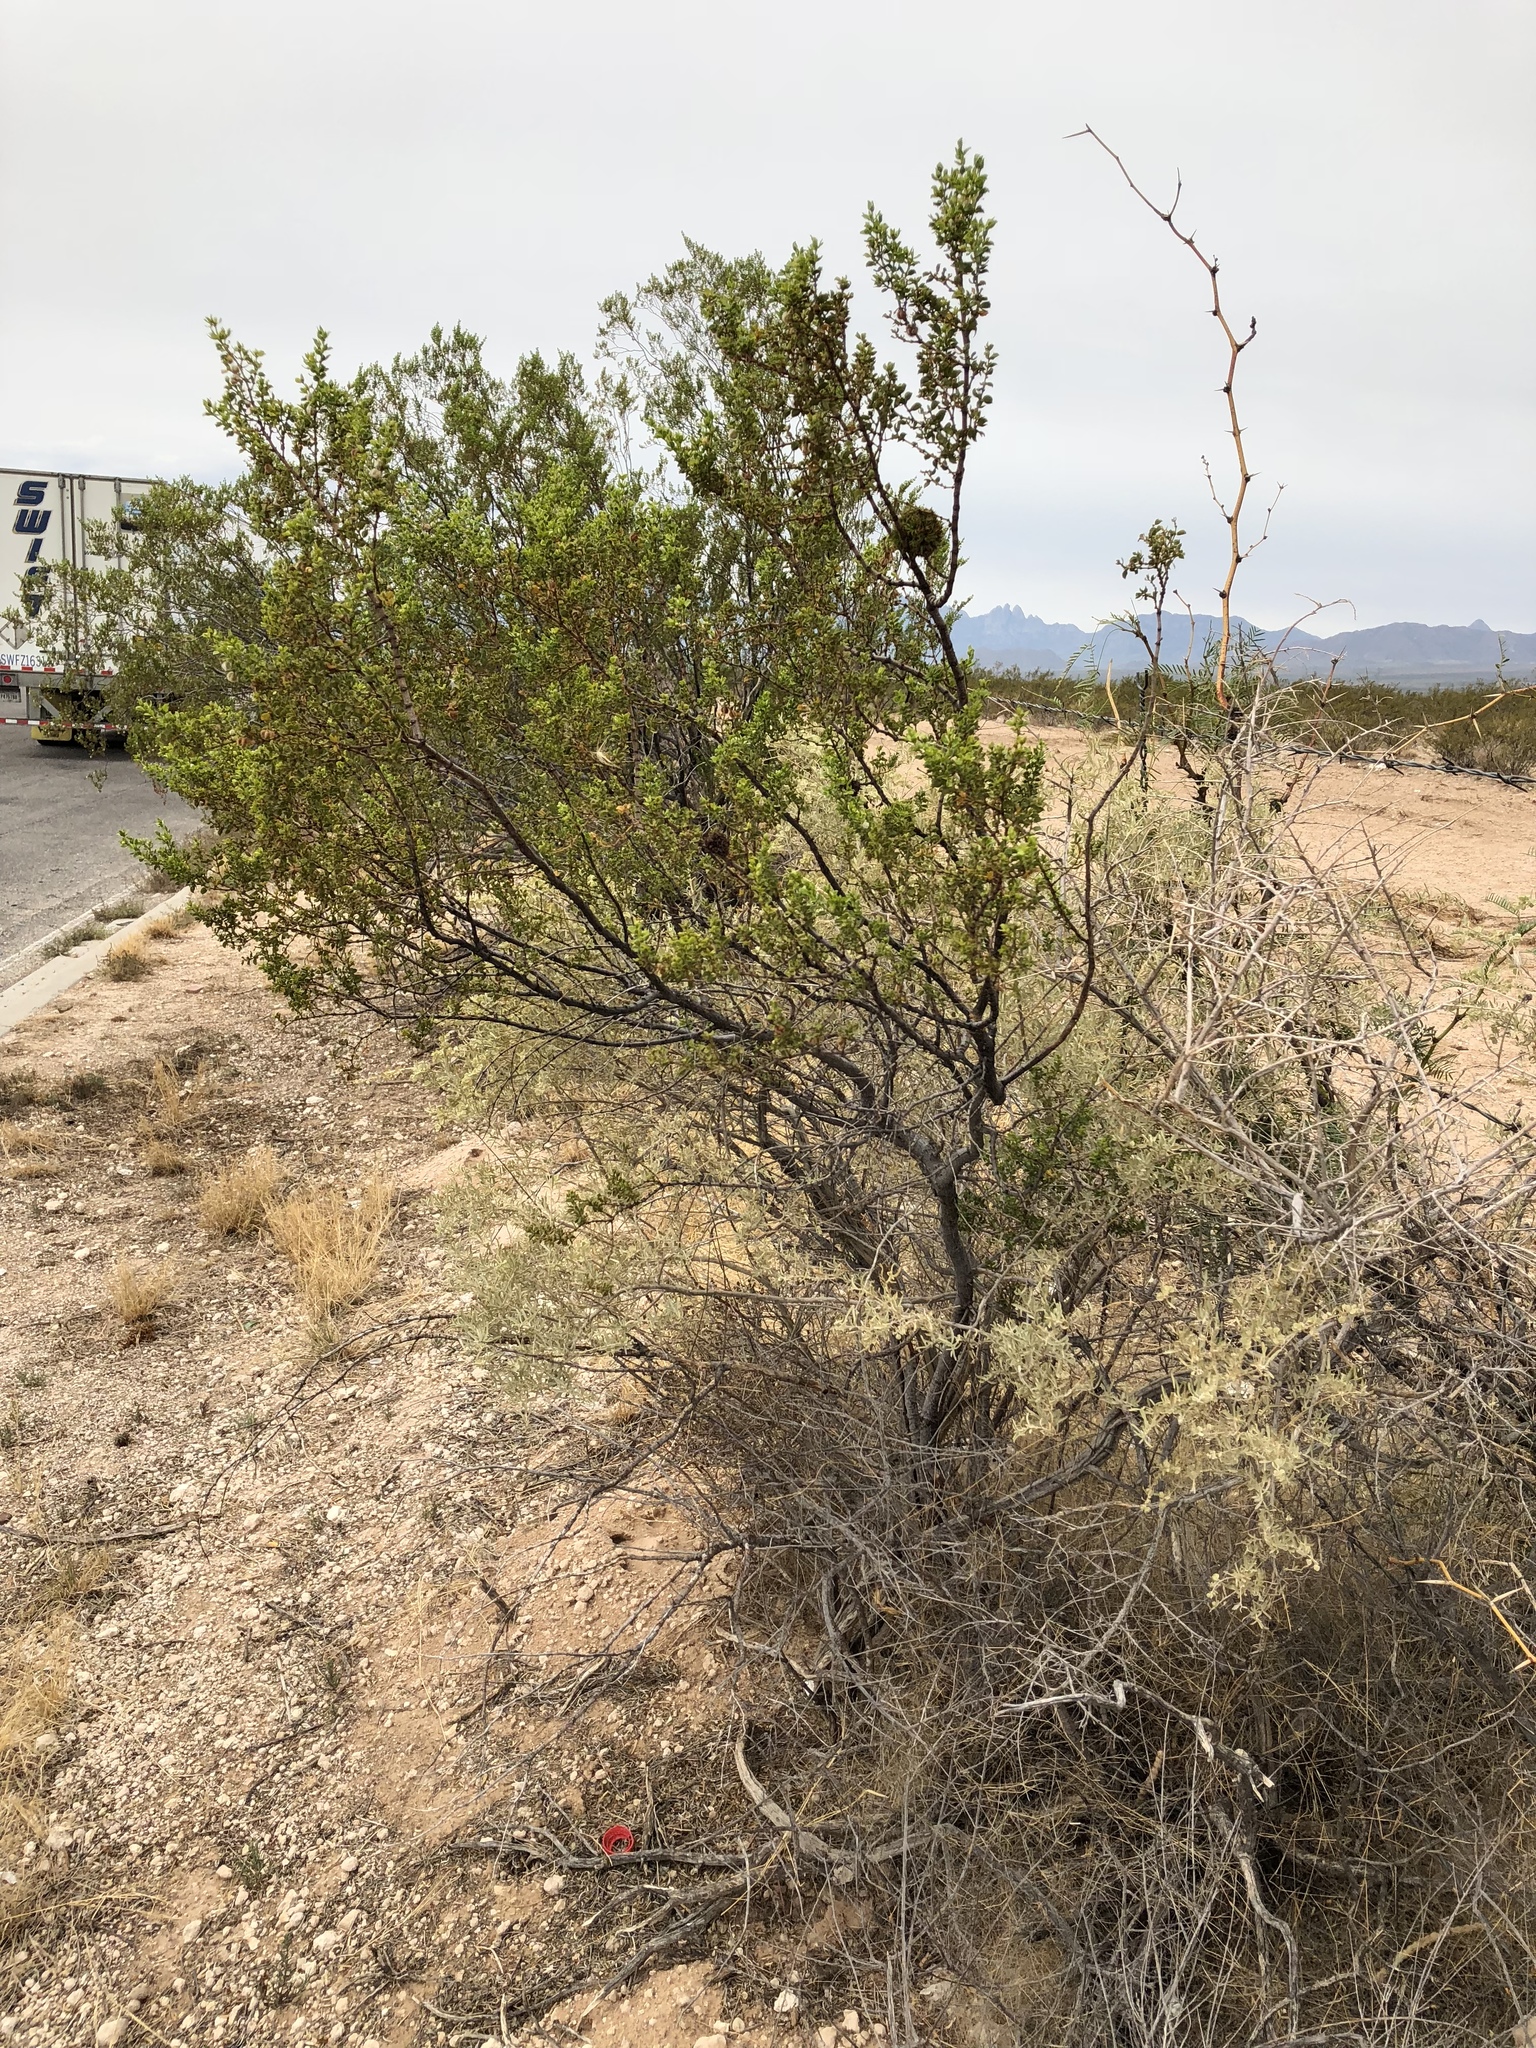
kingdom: Plantae
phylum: Tracheophyta
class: Magnoliopsida
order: Zygophyllales
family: Zygophyllaceae
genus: Larrea
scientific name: Larrea tridentata
